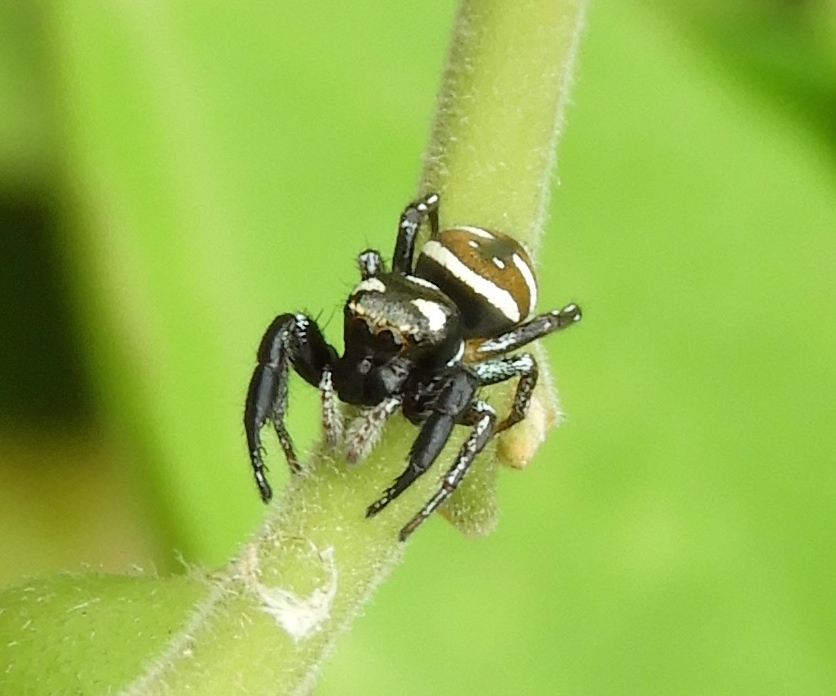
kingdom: Animalia
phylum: Arthropoda
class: Arachnida
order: Araneae
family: Salticidae
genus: Sassacus
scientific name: Sassacus
